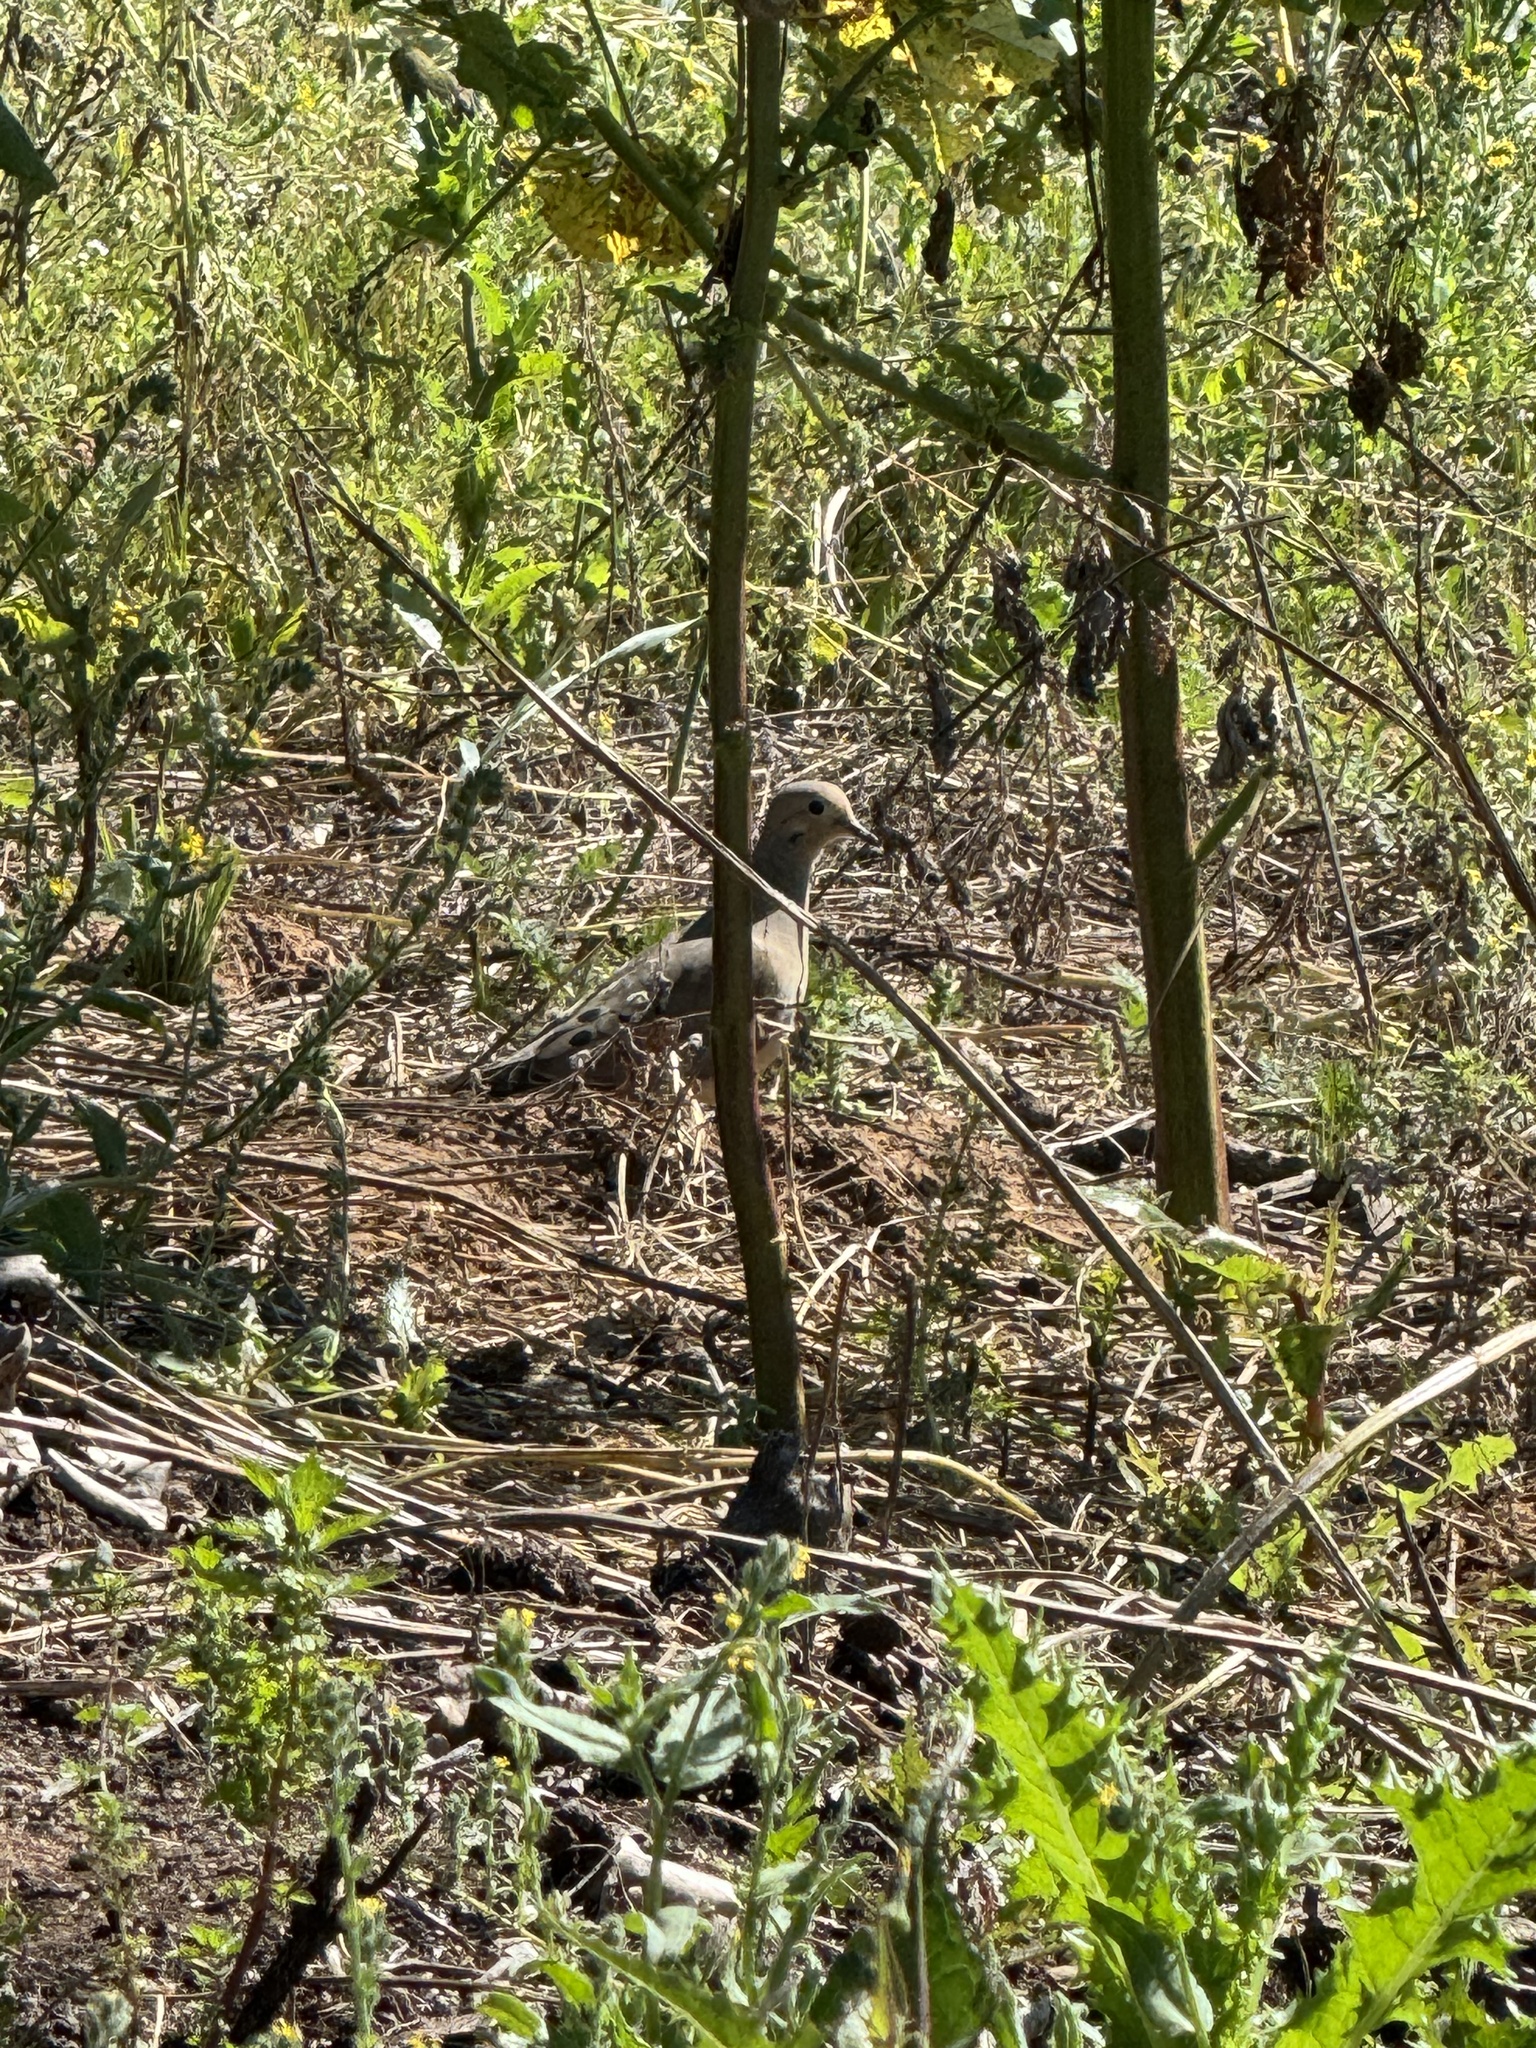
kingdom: Animalia
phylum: Chordata
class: Aves
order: Columbiformes
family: Columbidae
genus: Zenaida
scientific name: Zenaida macroura
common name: Mourning dove
